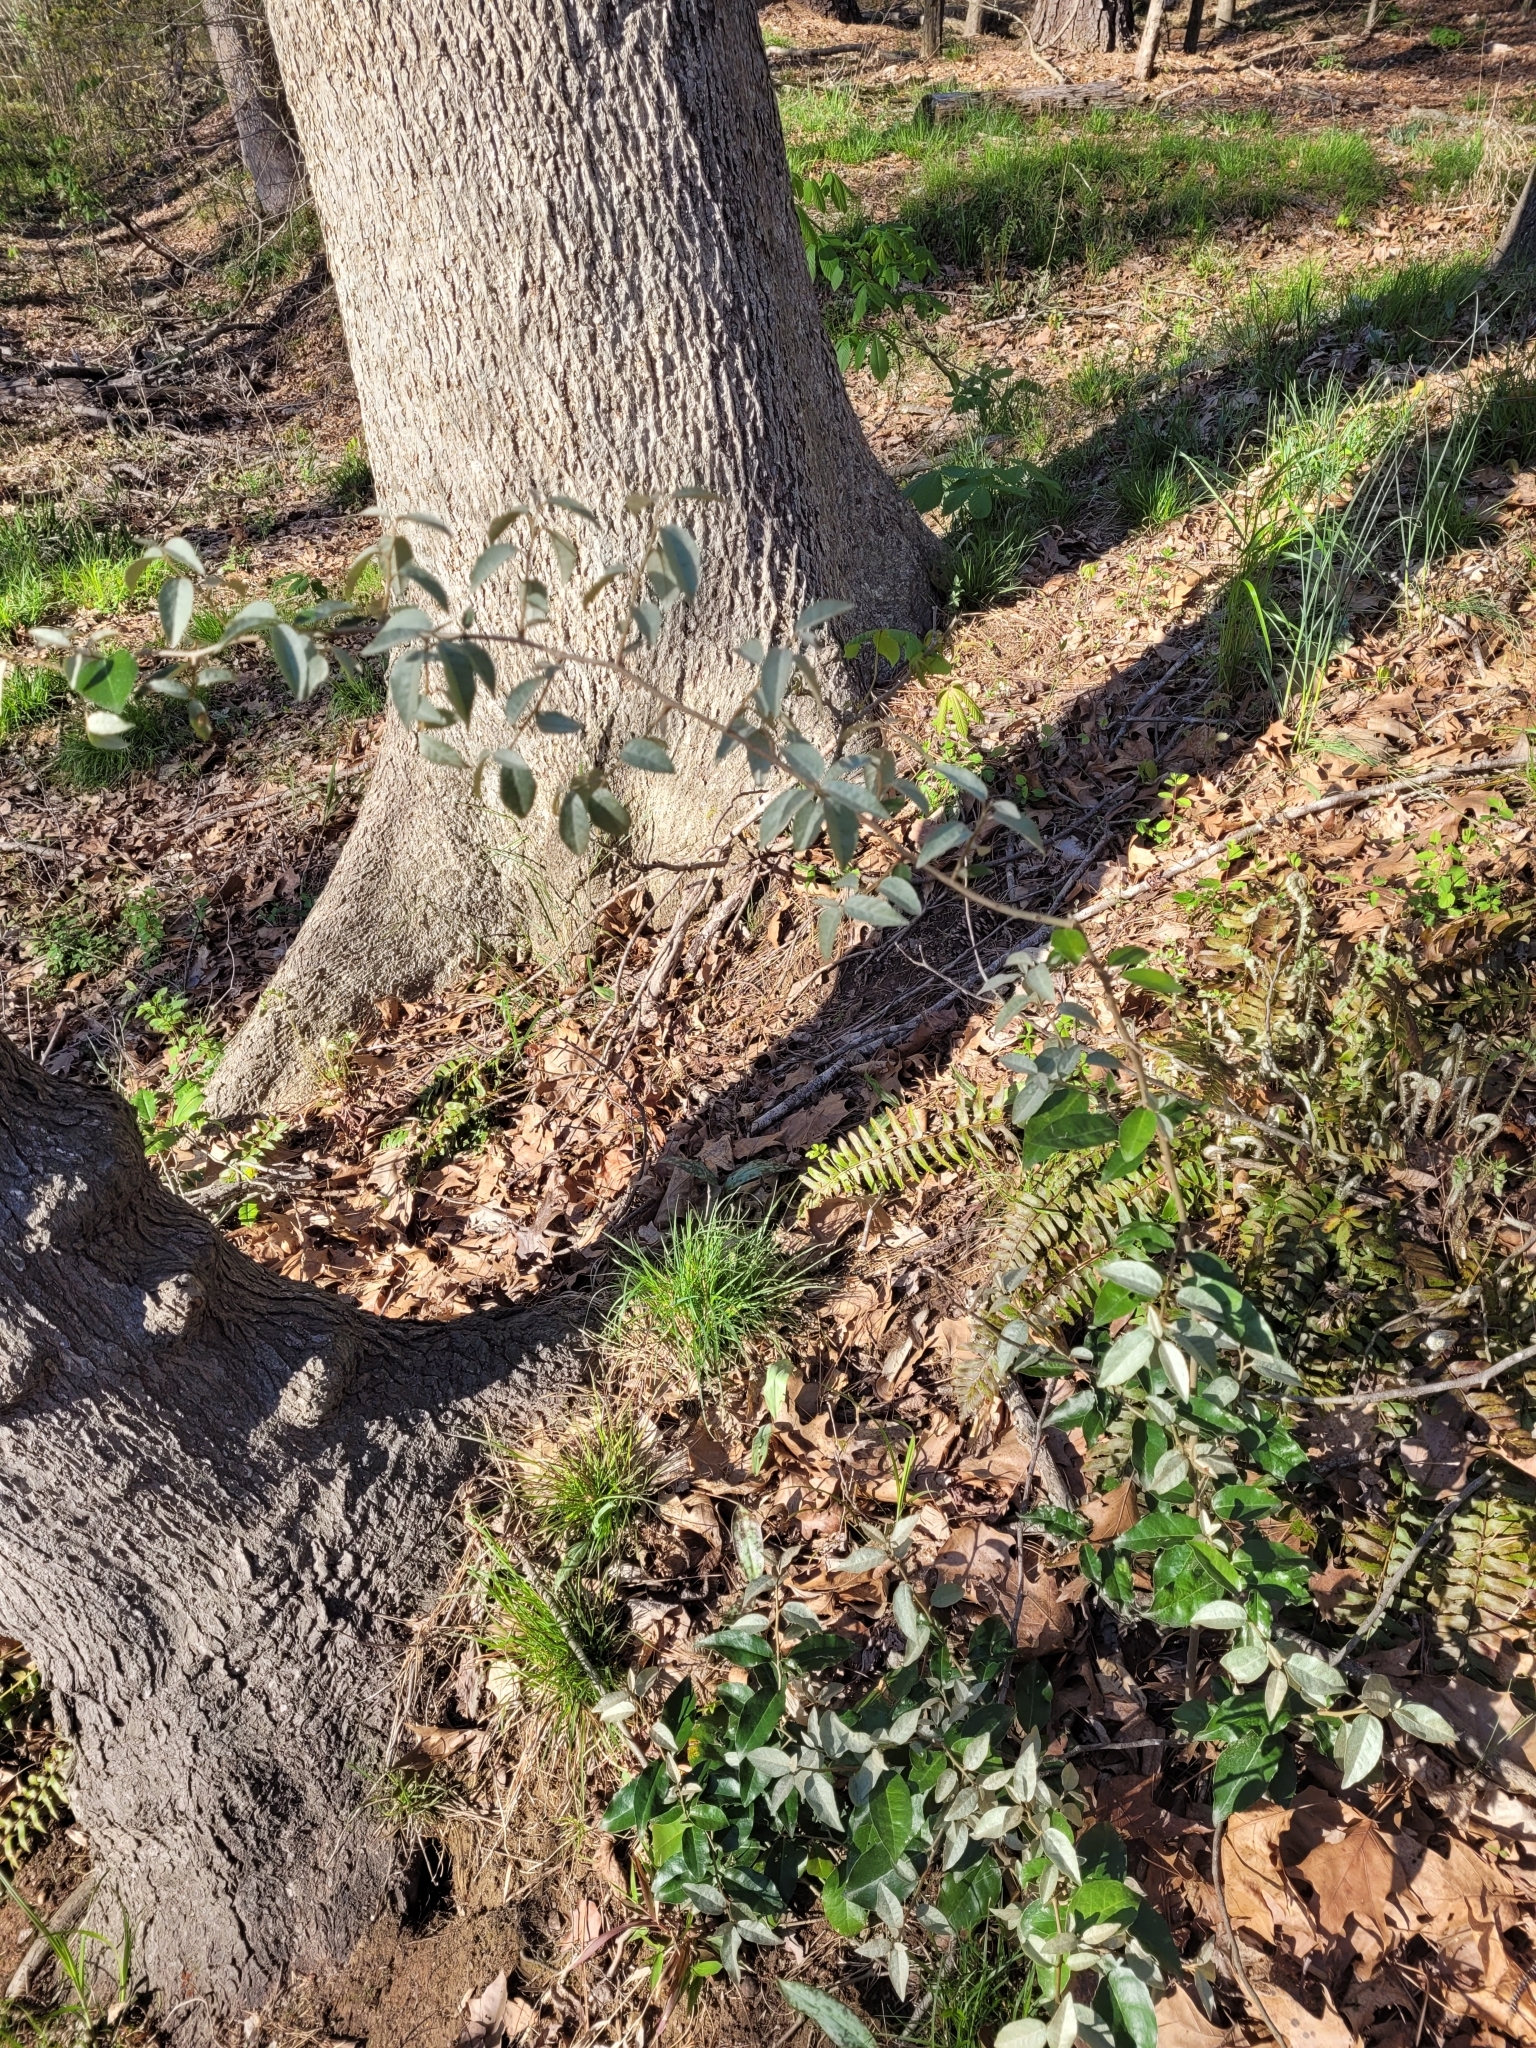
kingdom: Plantae
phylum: Tracheophyta
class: Magnoliopsida
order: Rosales
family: Elaeagnaceae
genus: Elaeagnus
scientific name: Elaeagnus pungens
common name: Spiny oleaster
